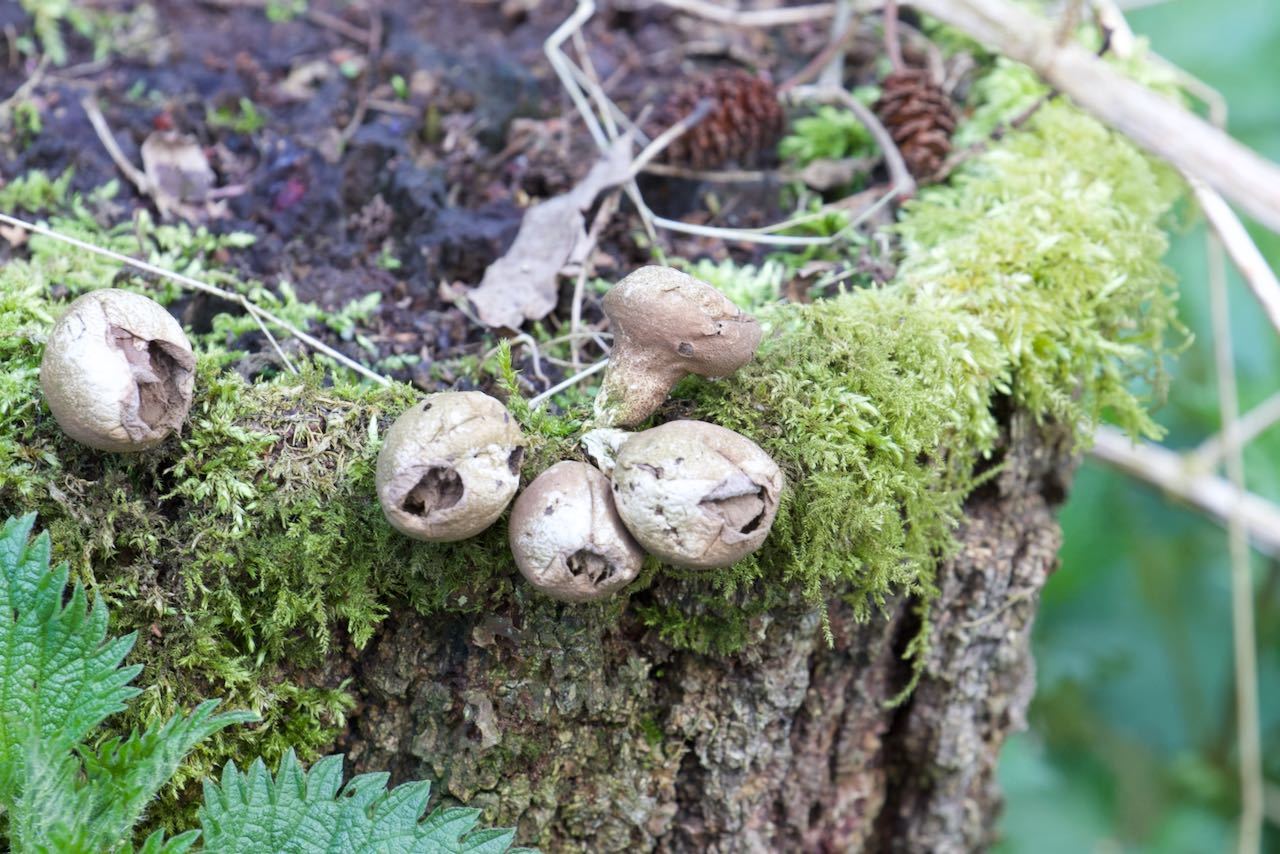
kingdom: Fungi
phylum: Basidiomycota
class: Agaricomycetes
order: Agaricales
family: Lycoperdaceae
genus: Apioperdon
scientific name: Apioperdon pyriforme
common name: Pear-shaped puffball
